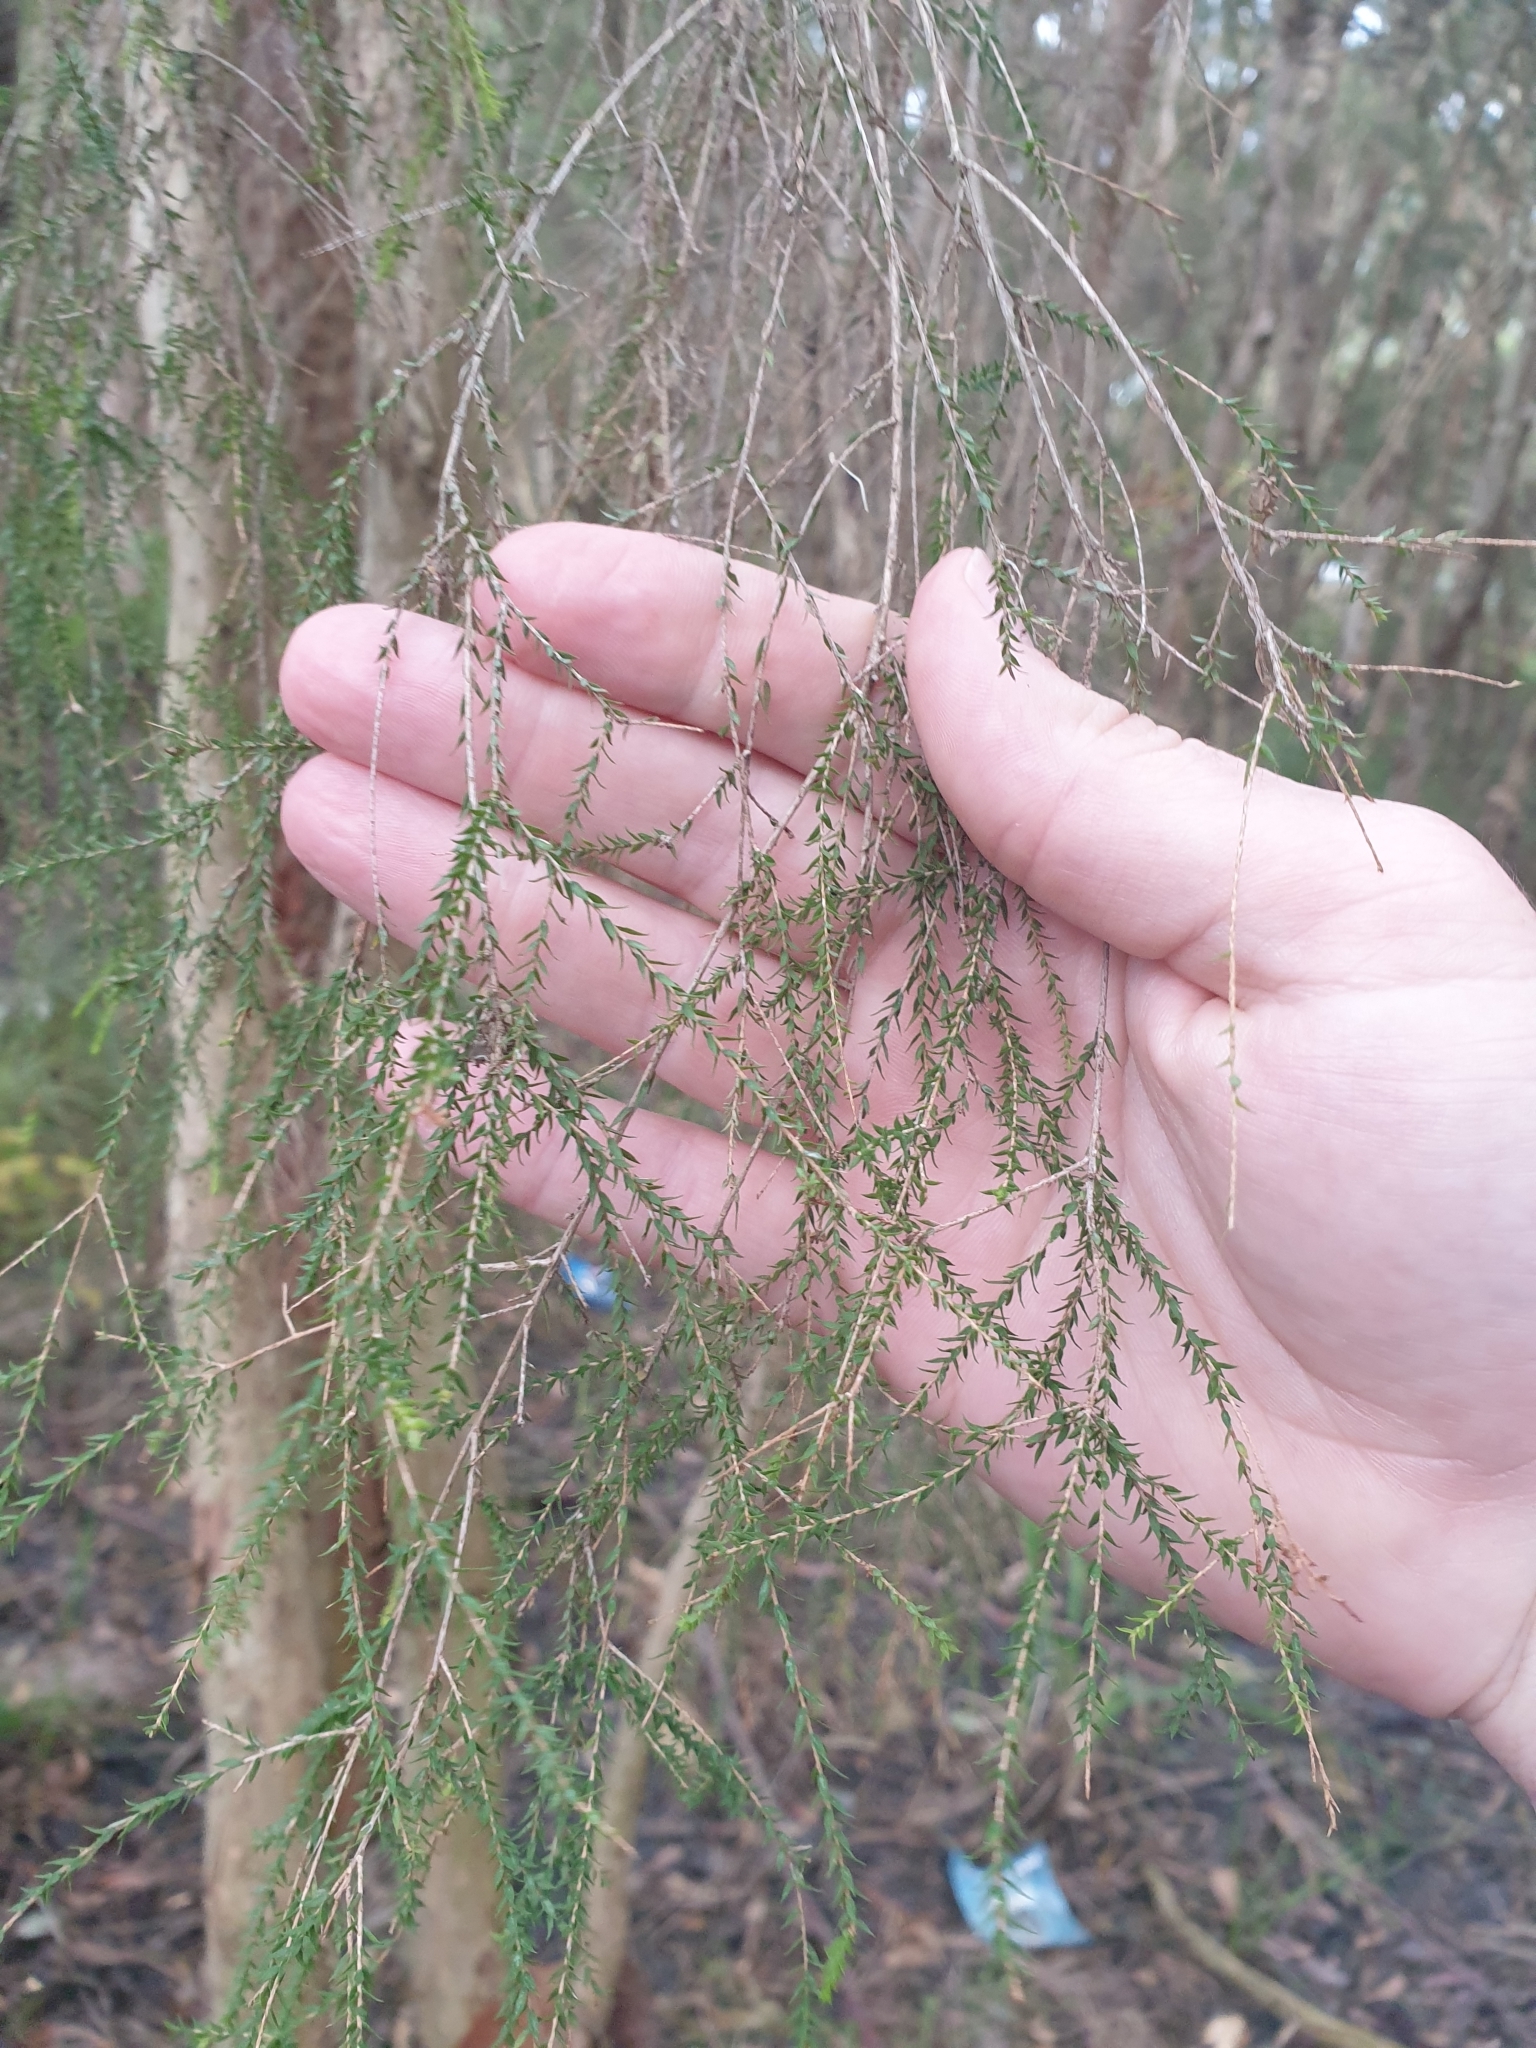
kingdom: Plantae
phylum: Tracheophyta
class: Magnoliopsida
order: Myrtales
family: Myrtaceae
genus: Melaleuca
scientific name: Melaleuca irbyana
